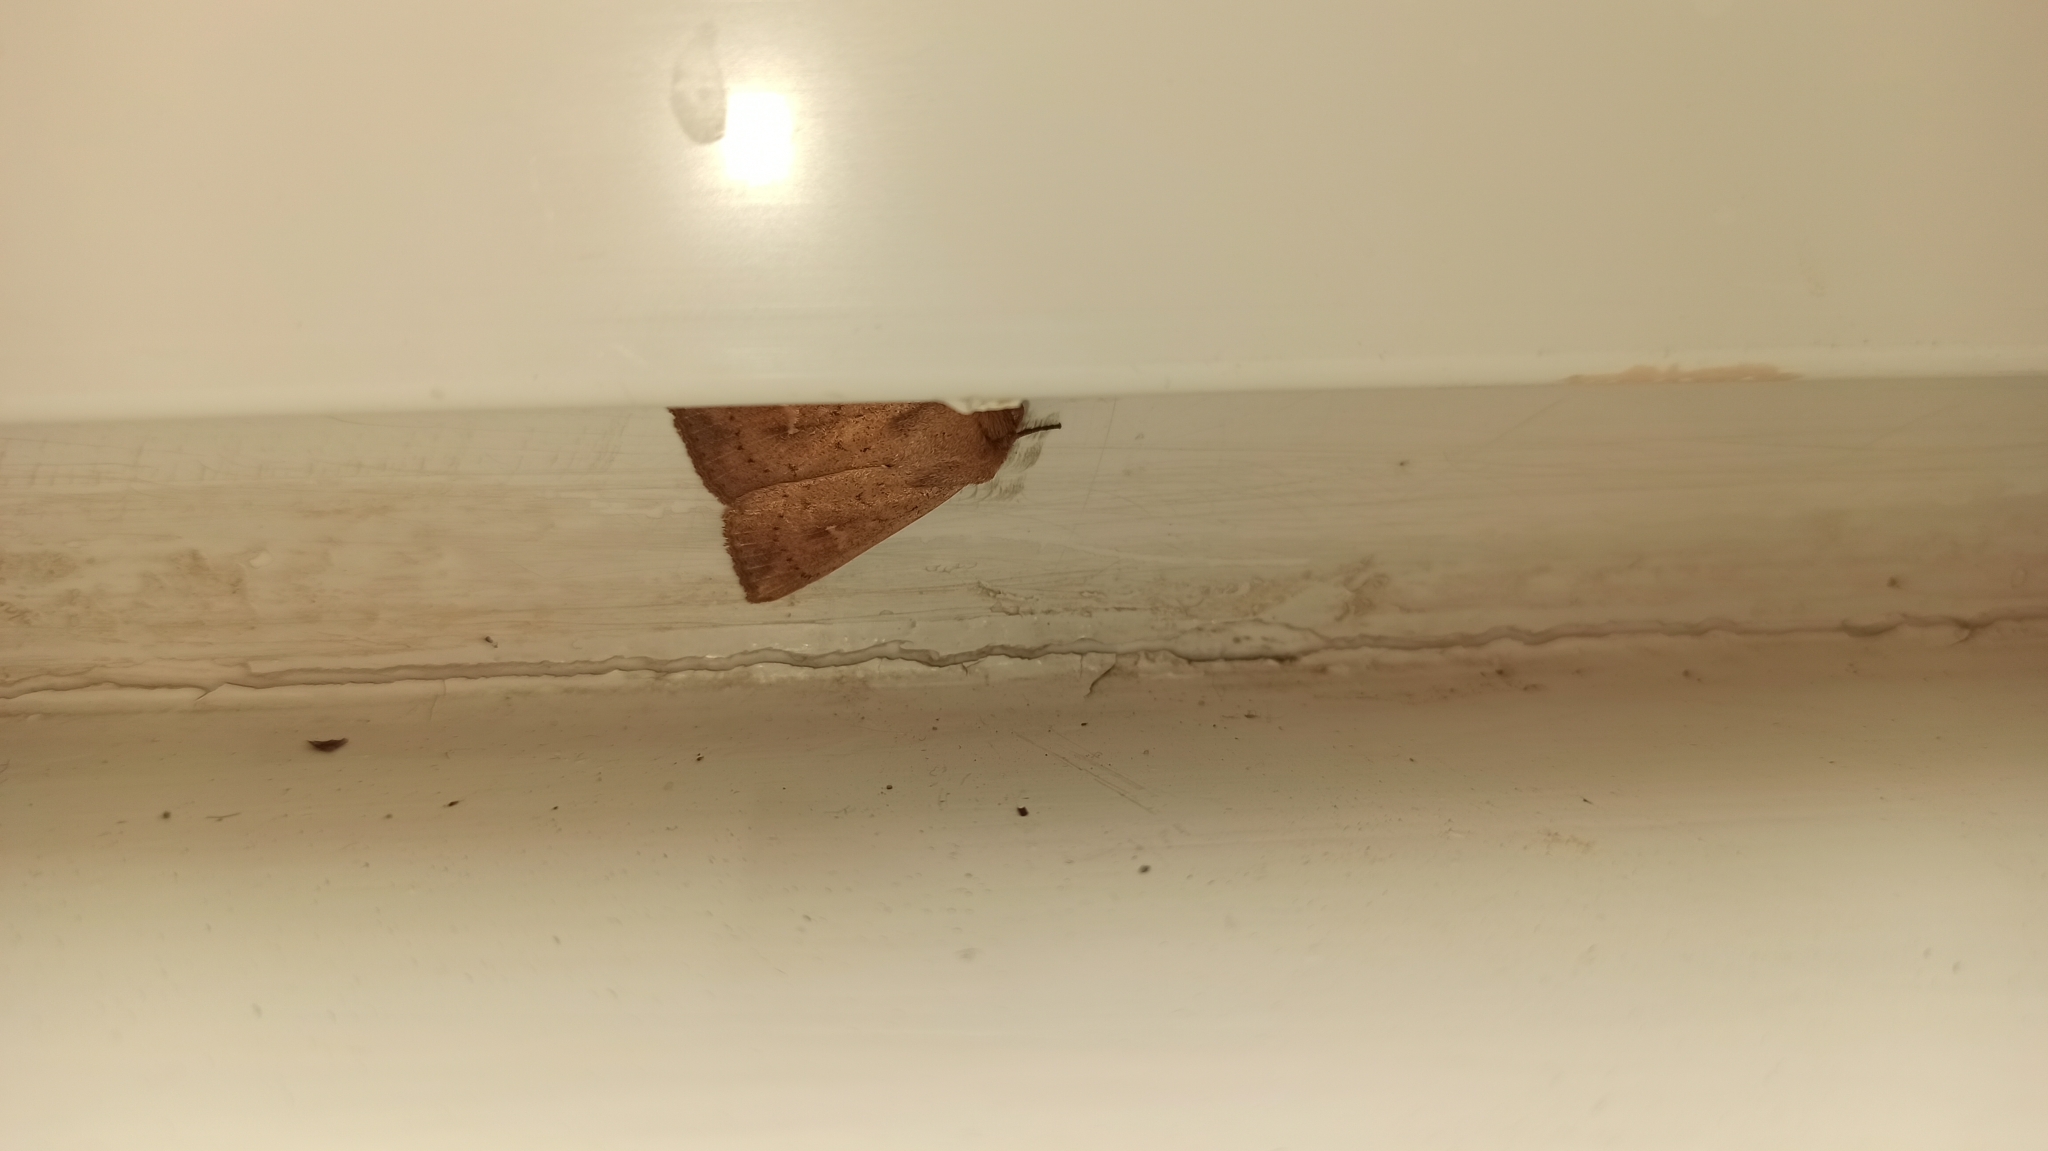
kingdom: Animalia
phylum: Arthropoda
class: Insecta
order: Lepidoptera
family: Noctuidae
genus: Mythimna
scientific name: Mythimna ferrago
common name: Clay
